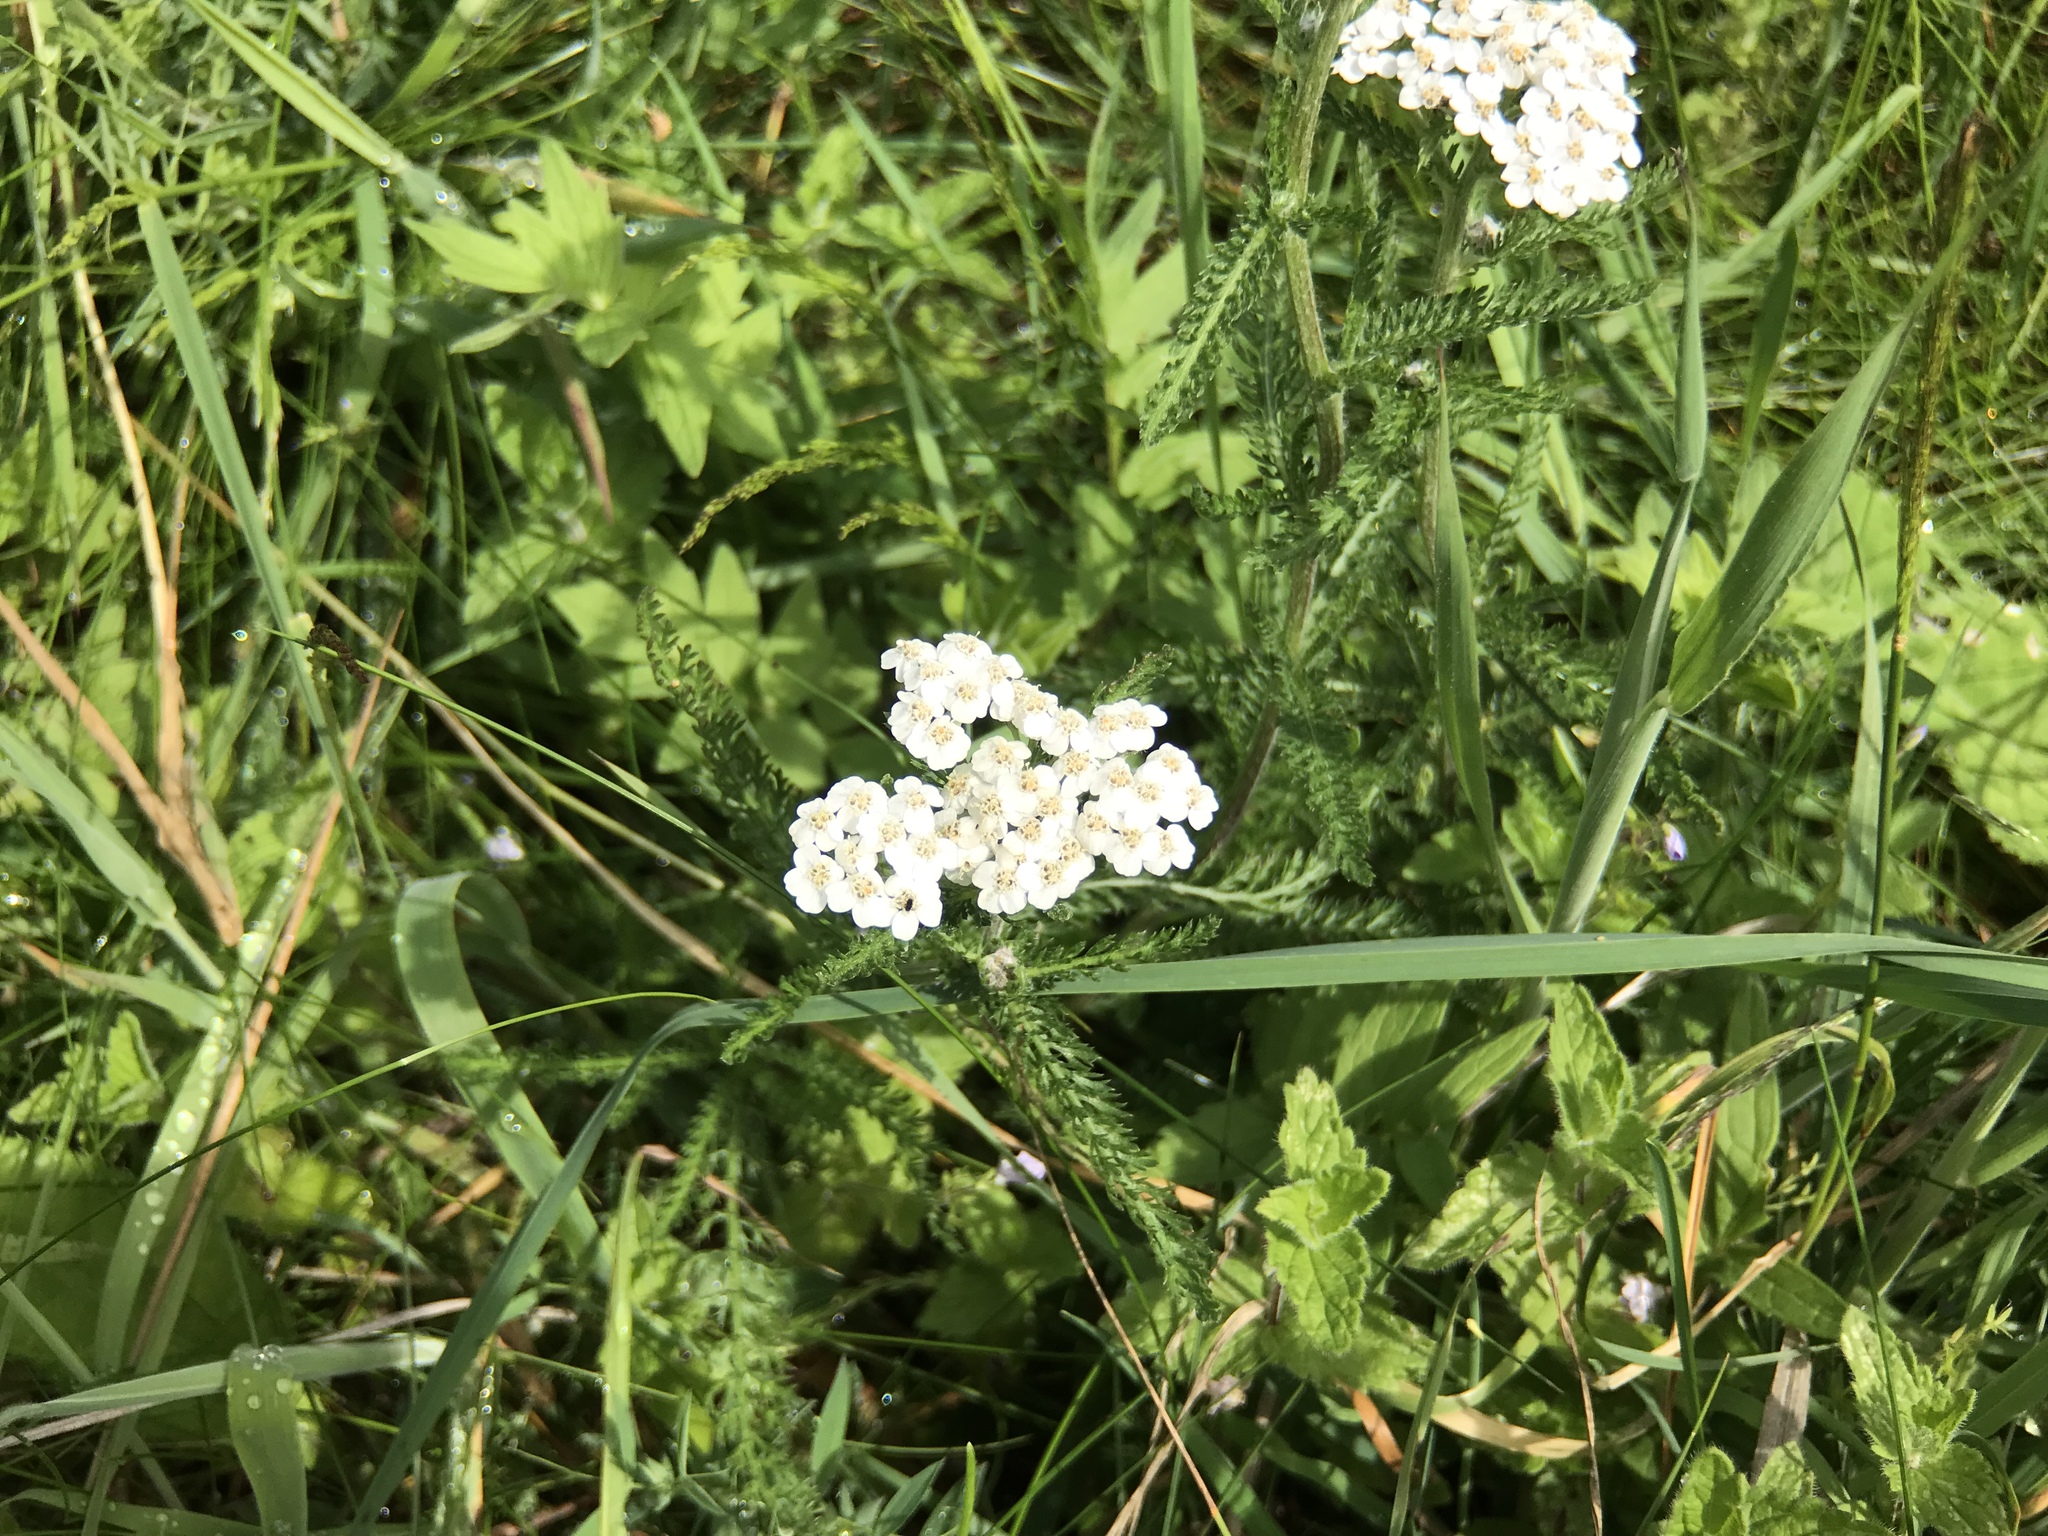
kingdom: Plantae
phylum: Tracheophyta
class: Magnoliopsida
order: Asterales
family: Asteraceae
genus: Achillea
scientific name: Achillea millefolium
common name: Yarrow
